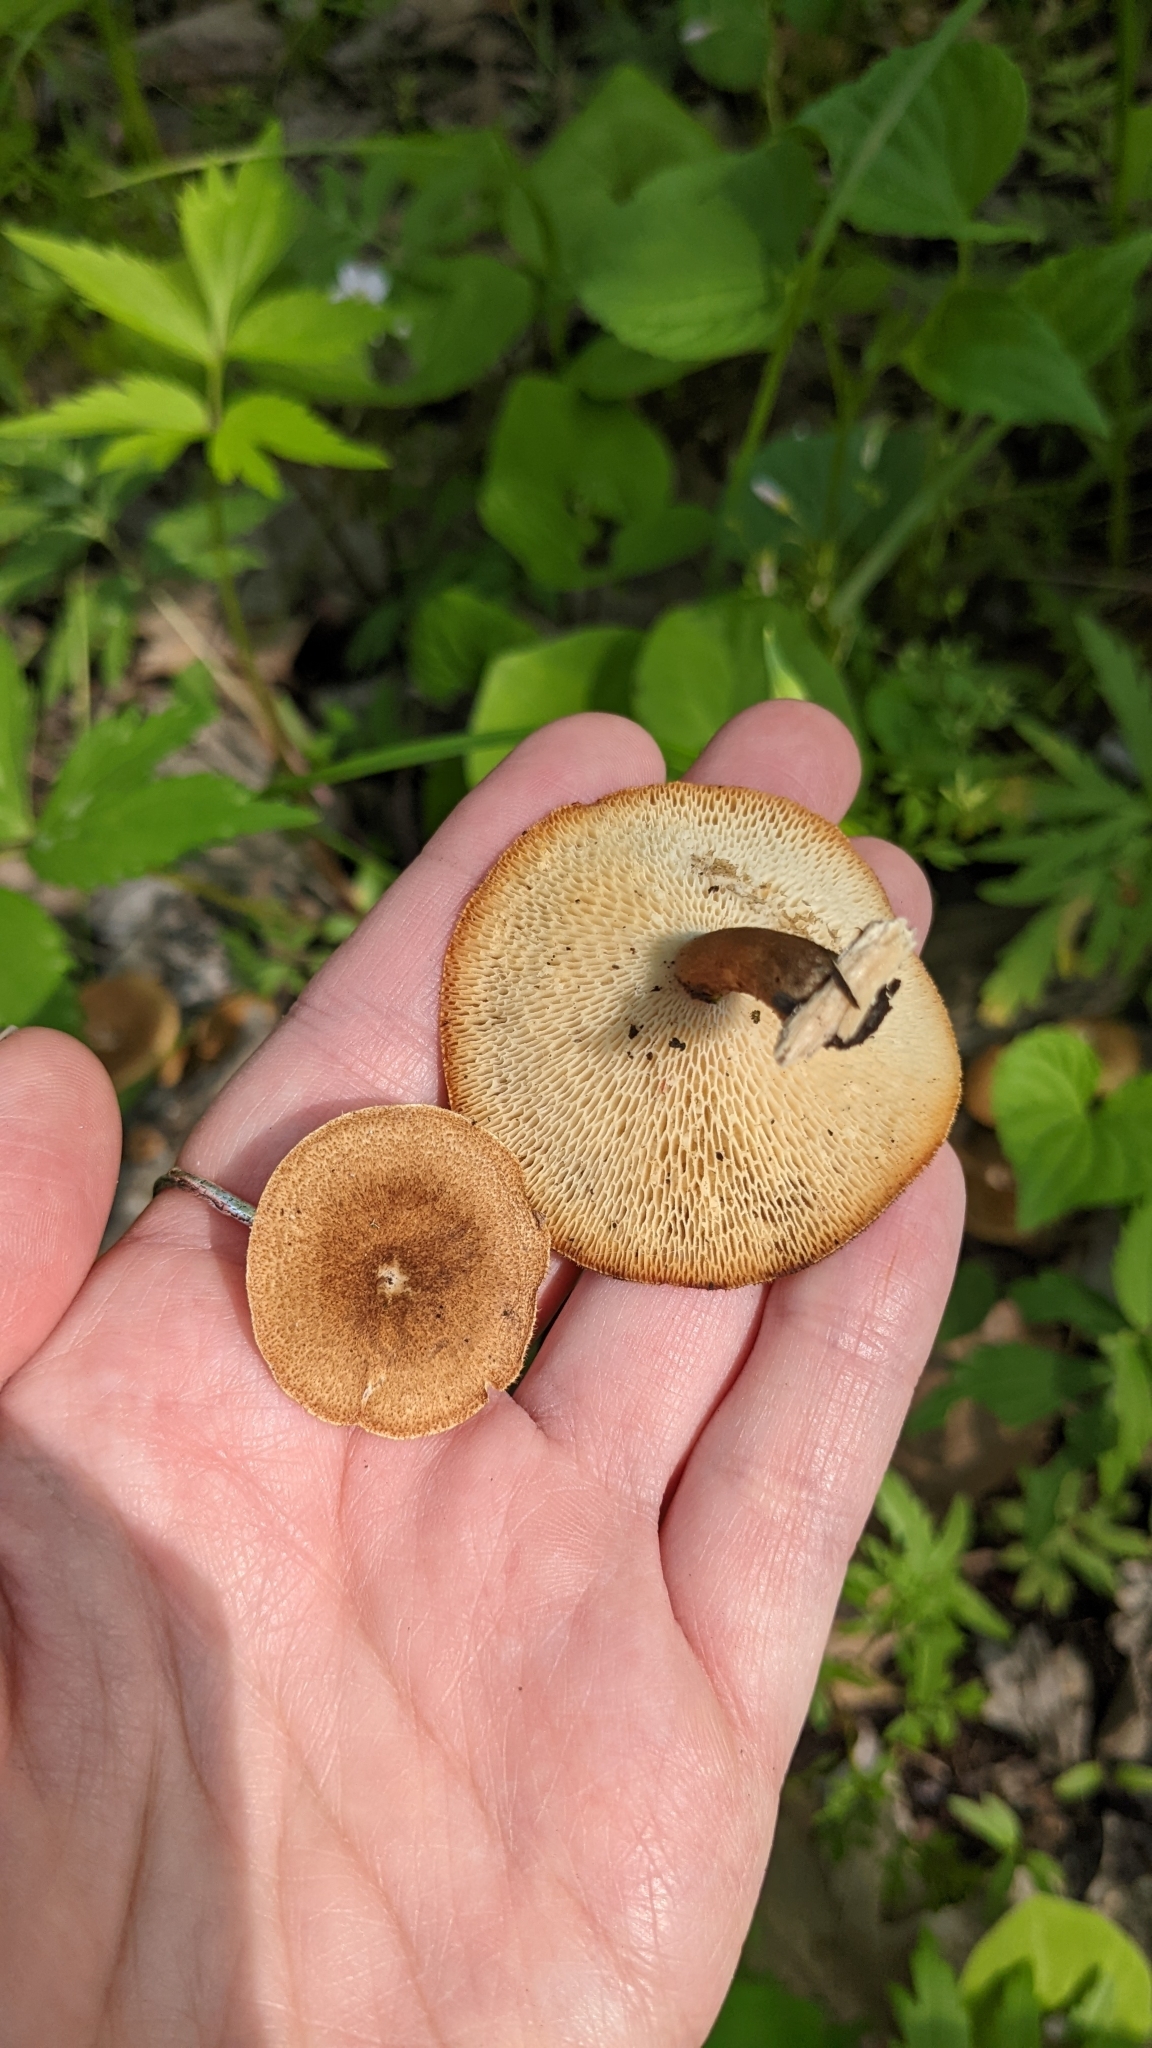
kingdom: Fungi
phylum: Basidiomycota
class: Agaricomycetes
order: Polyporales
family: Polyporaceae
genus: Lentinus
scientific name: Lentinus arcularius
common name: Spring polypore
